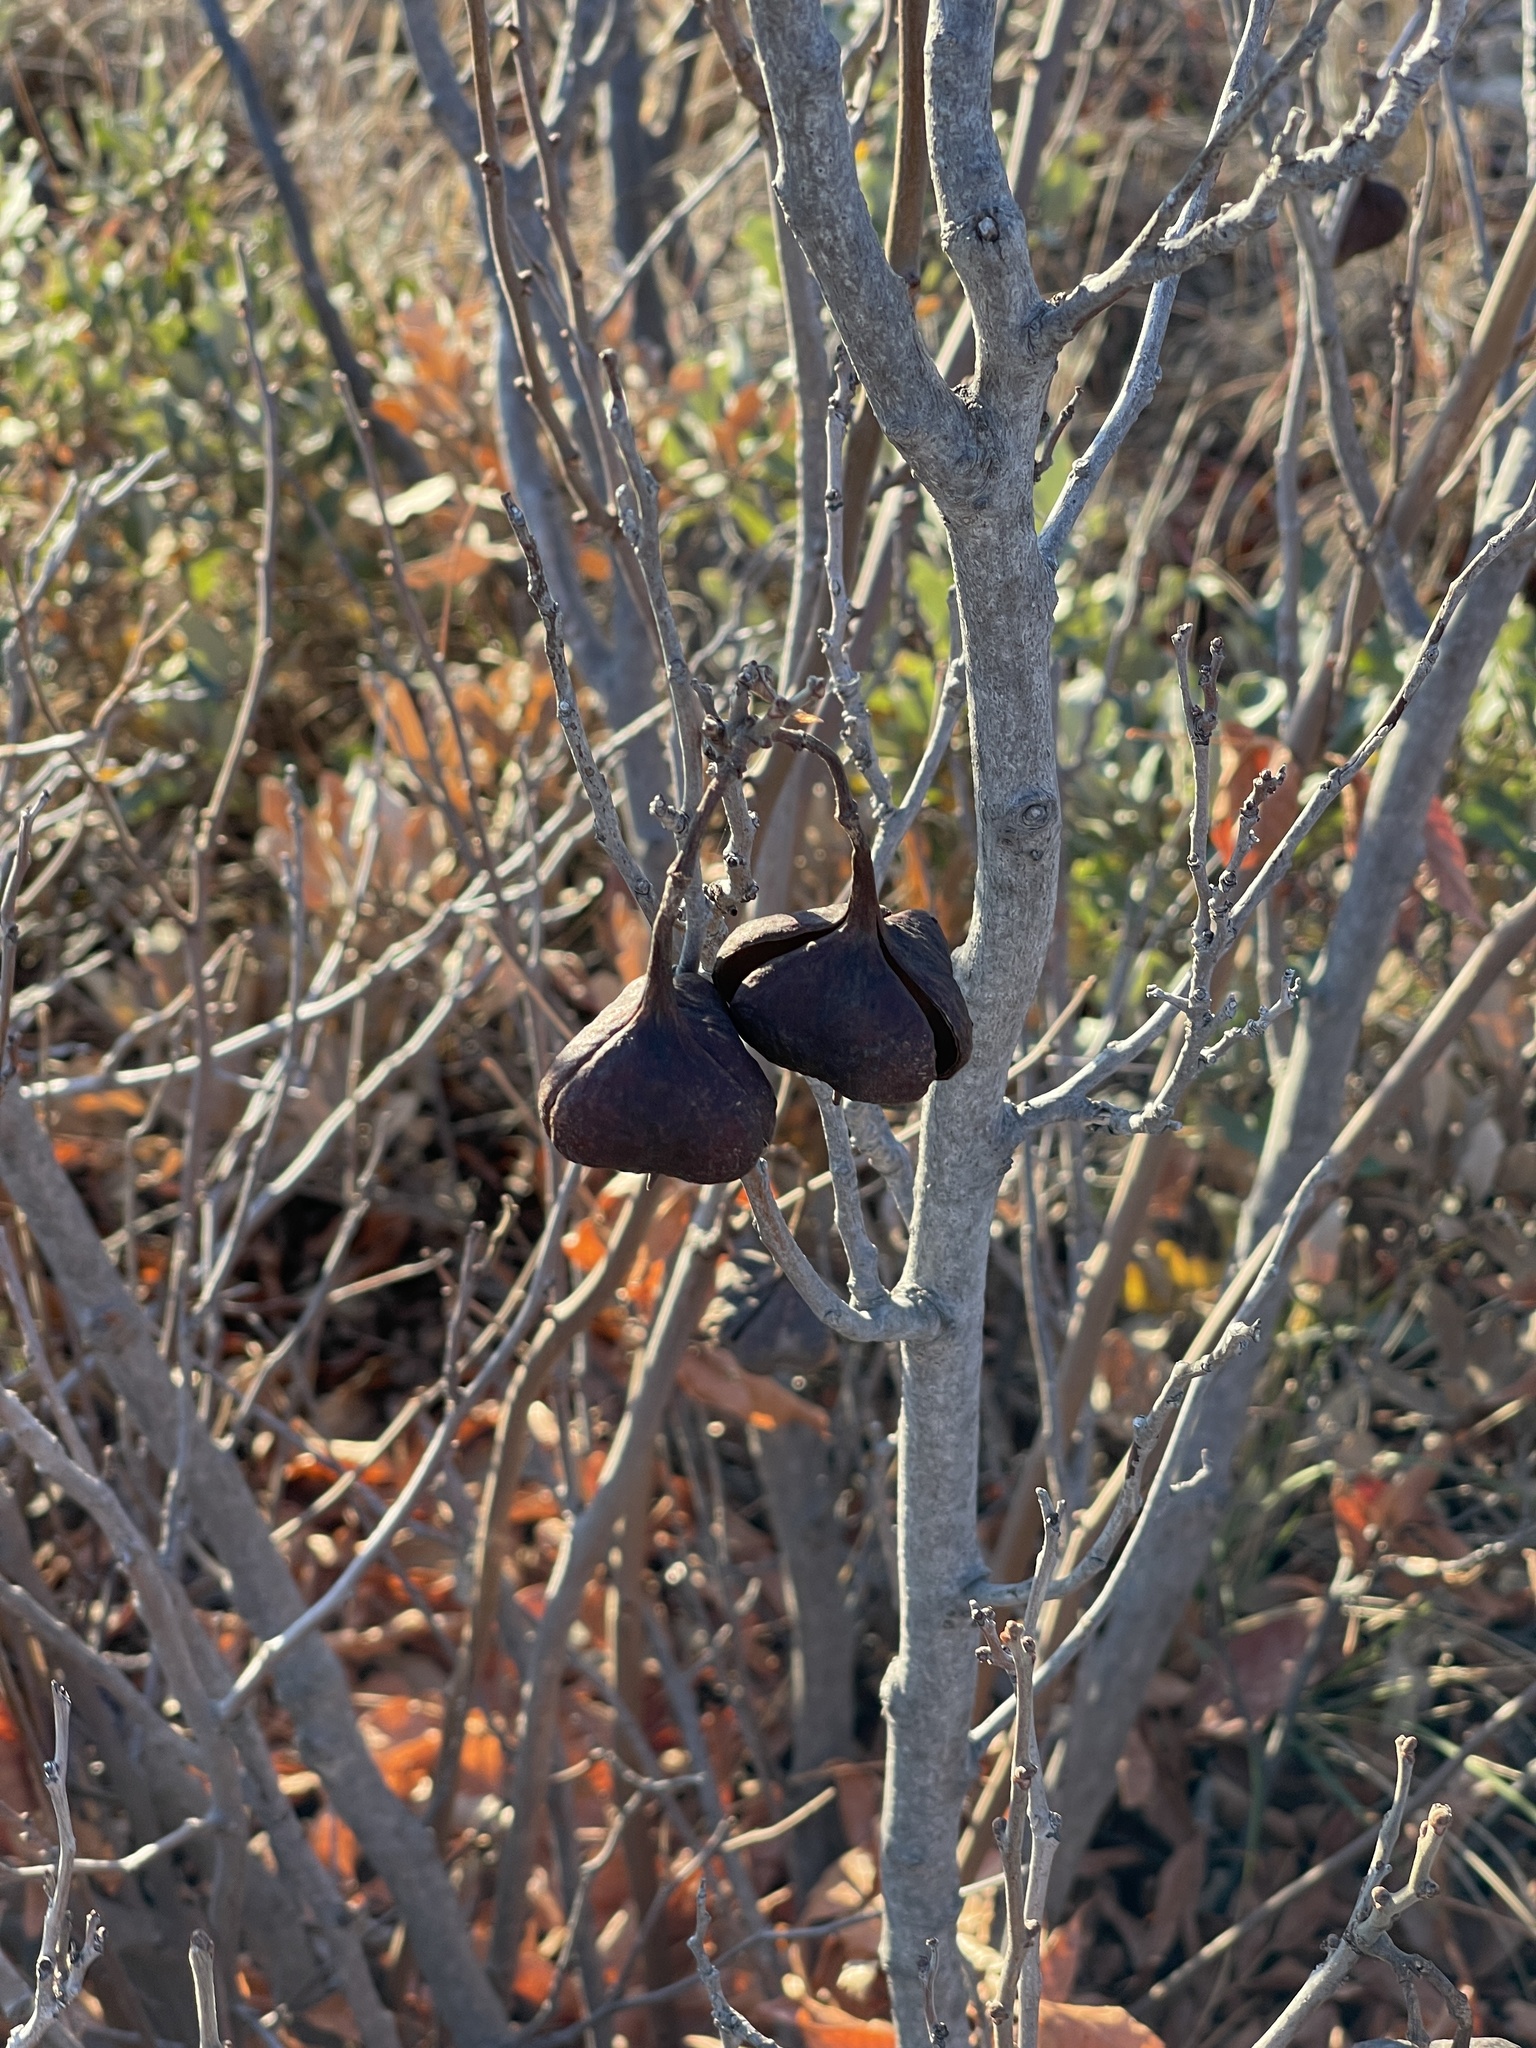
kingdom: Plantae
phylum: Tracheophyta
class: Magnoliopsida
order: Sapindales
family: Sapindaceae
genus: Ungnadia
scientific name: Ungnadia speciosa
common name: Texas-buckeye
